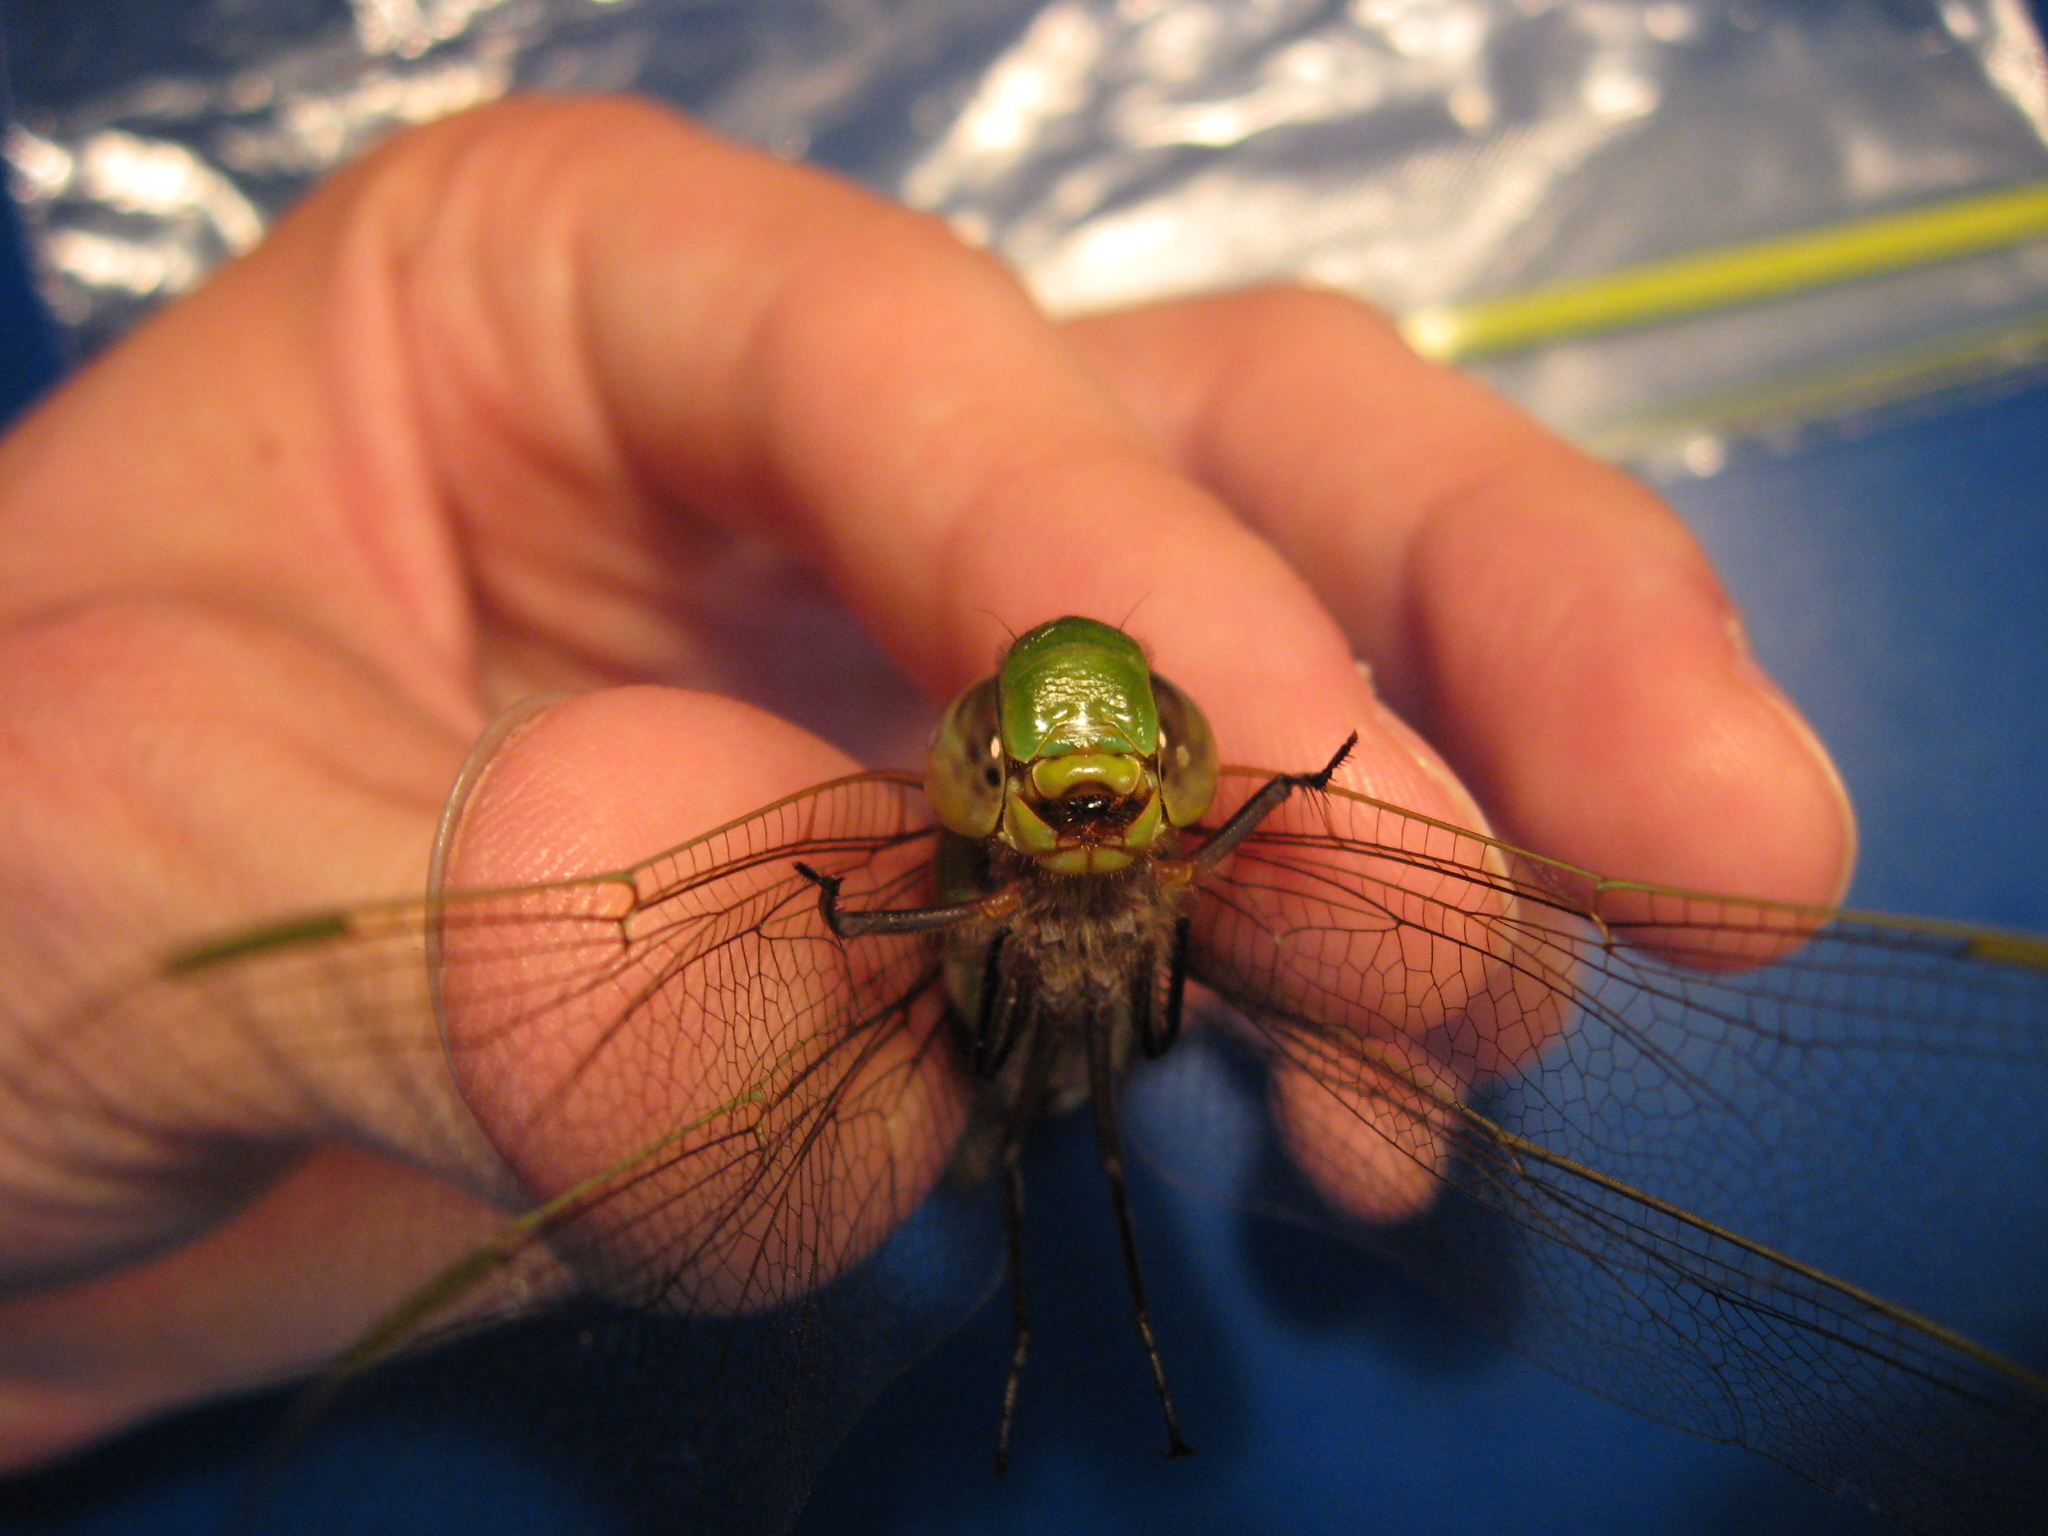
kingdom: Animalia
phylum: Arthropoda
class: Insecta
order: Odonata
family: Aeshnidae
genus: Anax
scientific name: Anax junius
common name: Common green darner
